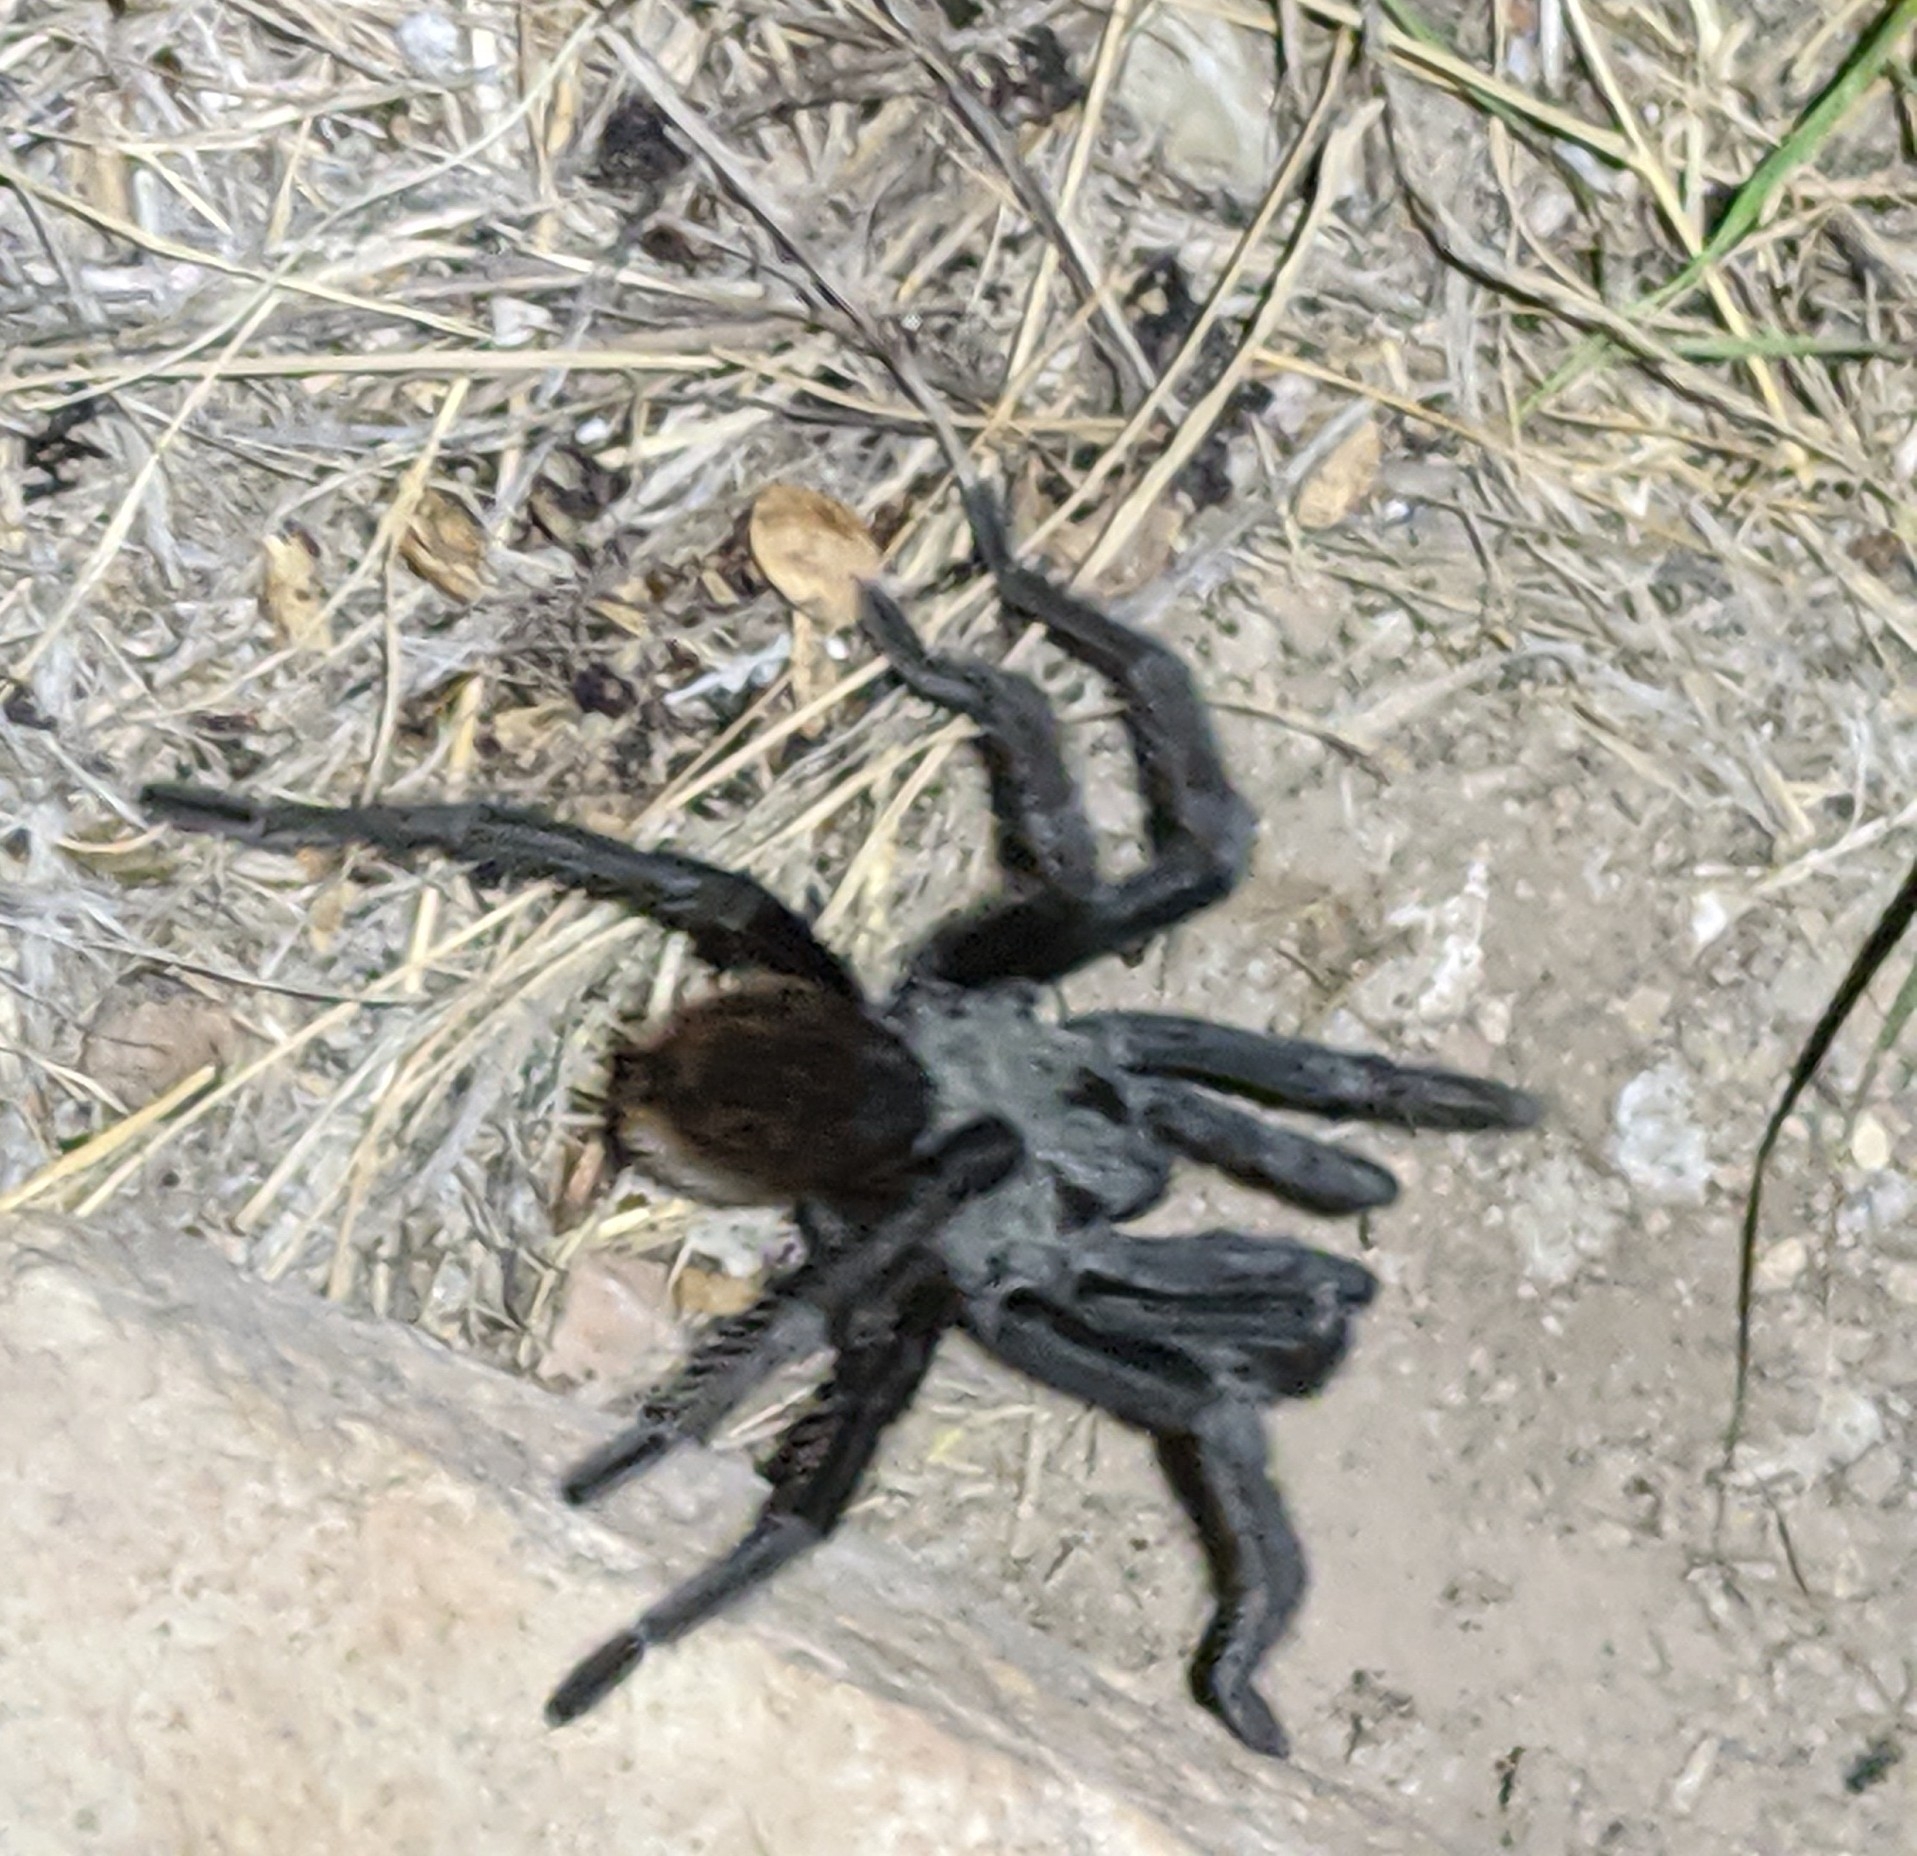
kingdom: Animalia
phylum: Arthropoda
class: Arachnida
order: Araneae
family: Theraphosidae
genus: Aphonopelma
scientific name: Aphonopelma gabeli
